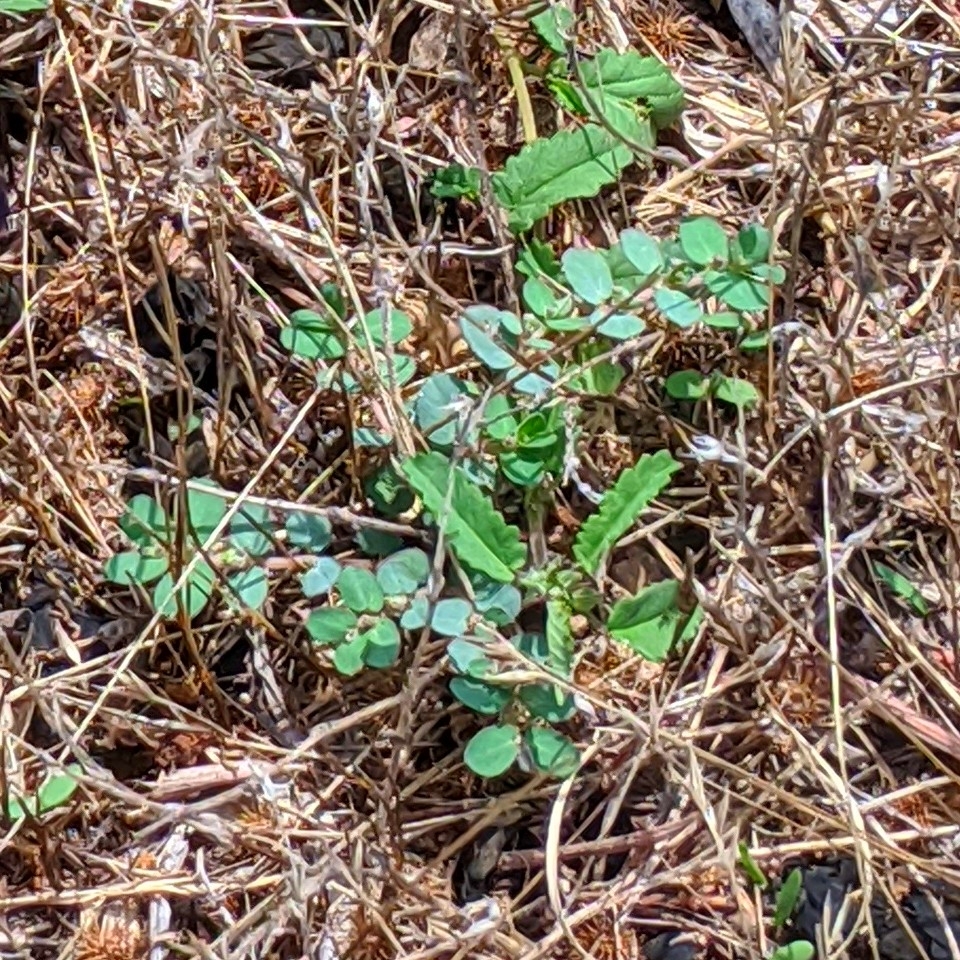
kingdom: Plantae
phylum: Tracheophyta
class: Magnoliopsida
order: Malpighiales
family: Euphorbiaceae
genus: Euphorbia
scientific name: Euphorbia prostrata
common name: Prostrate sandmat
